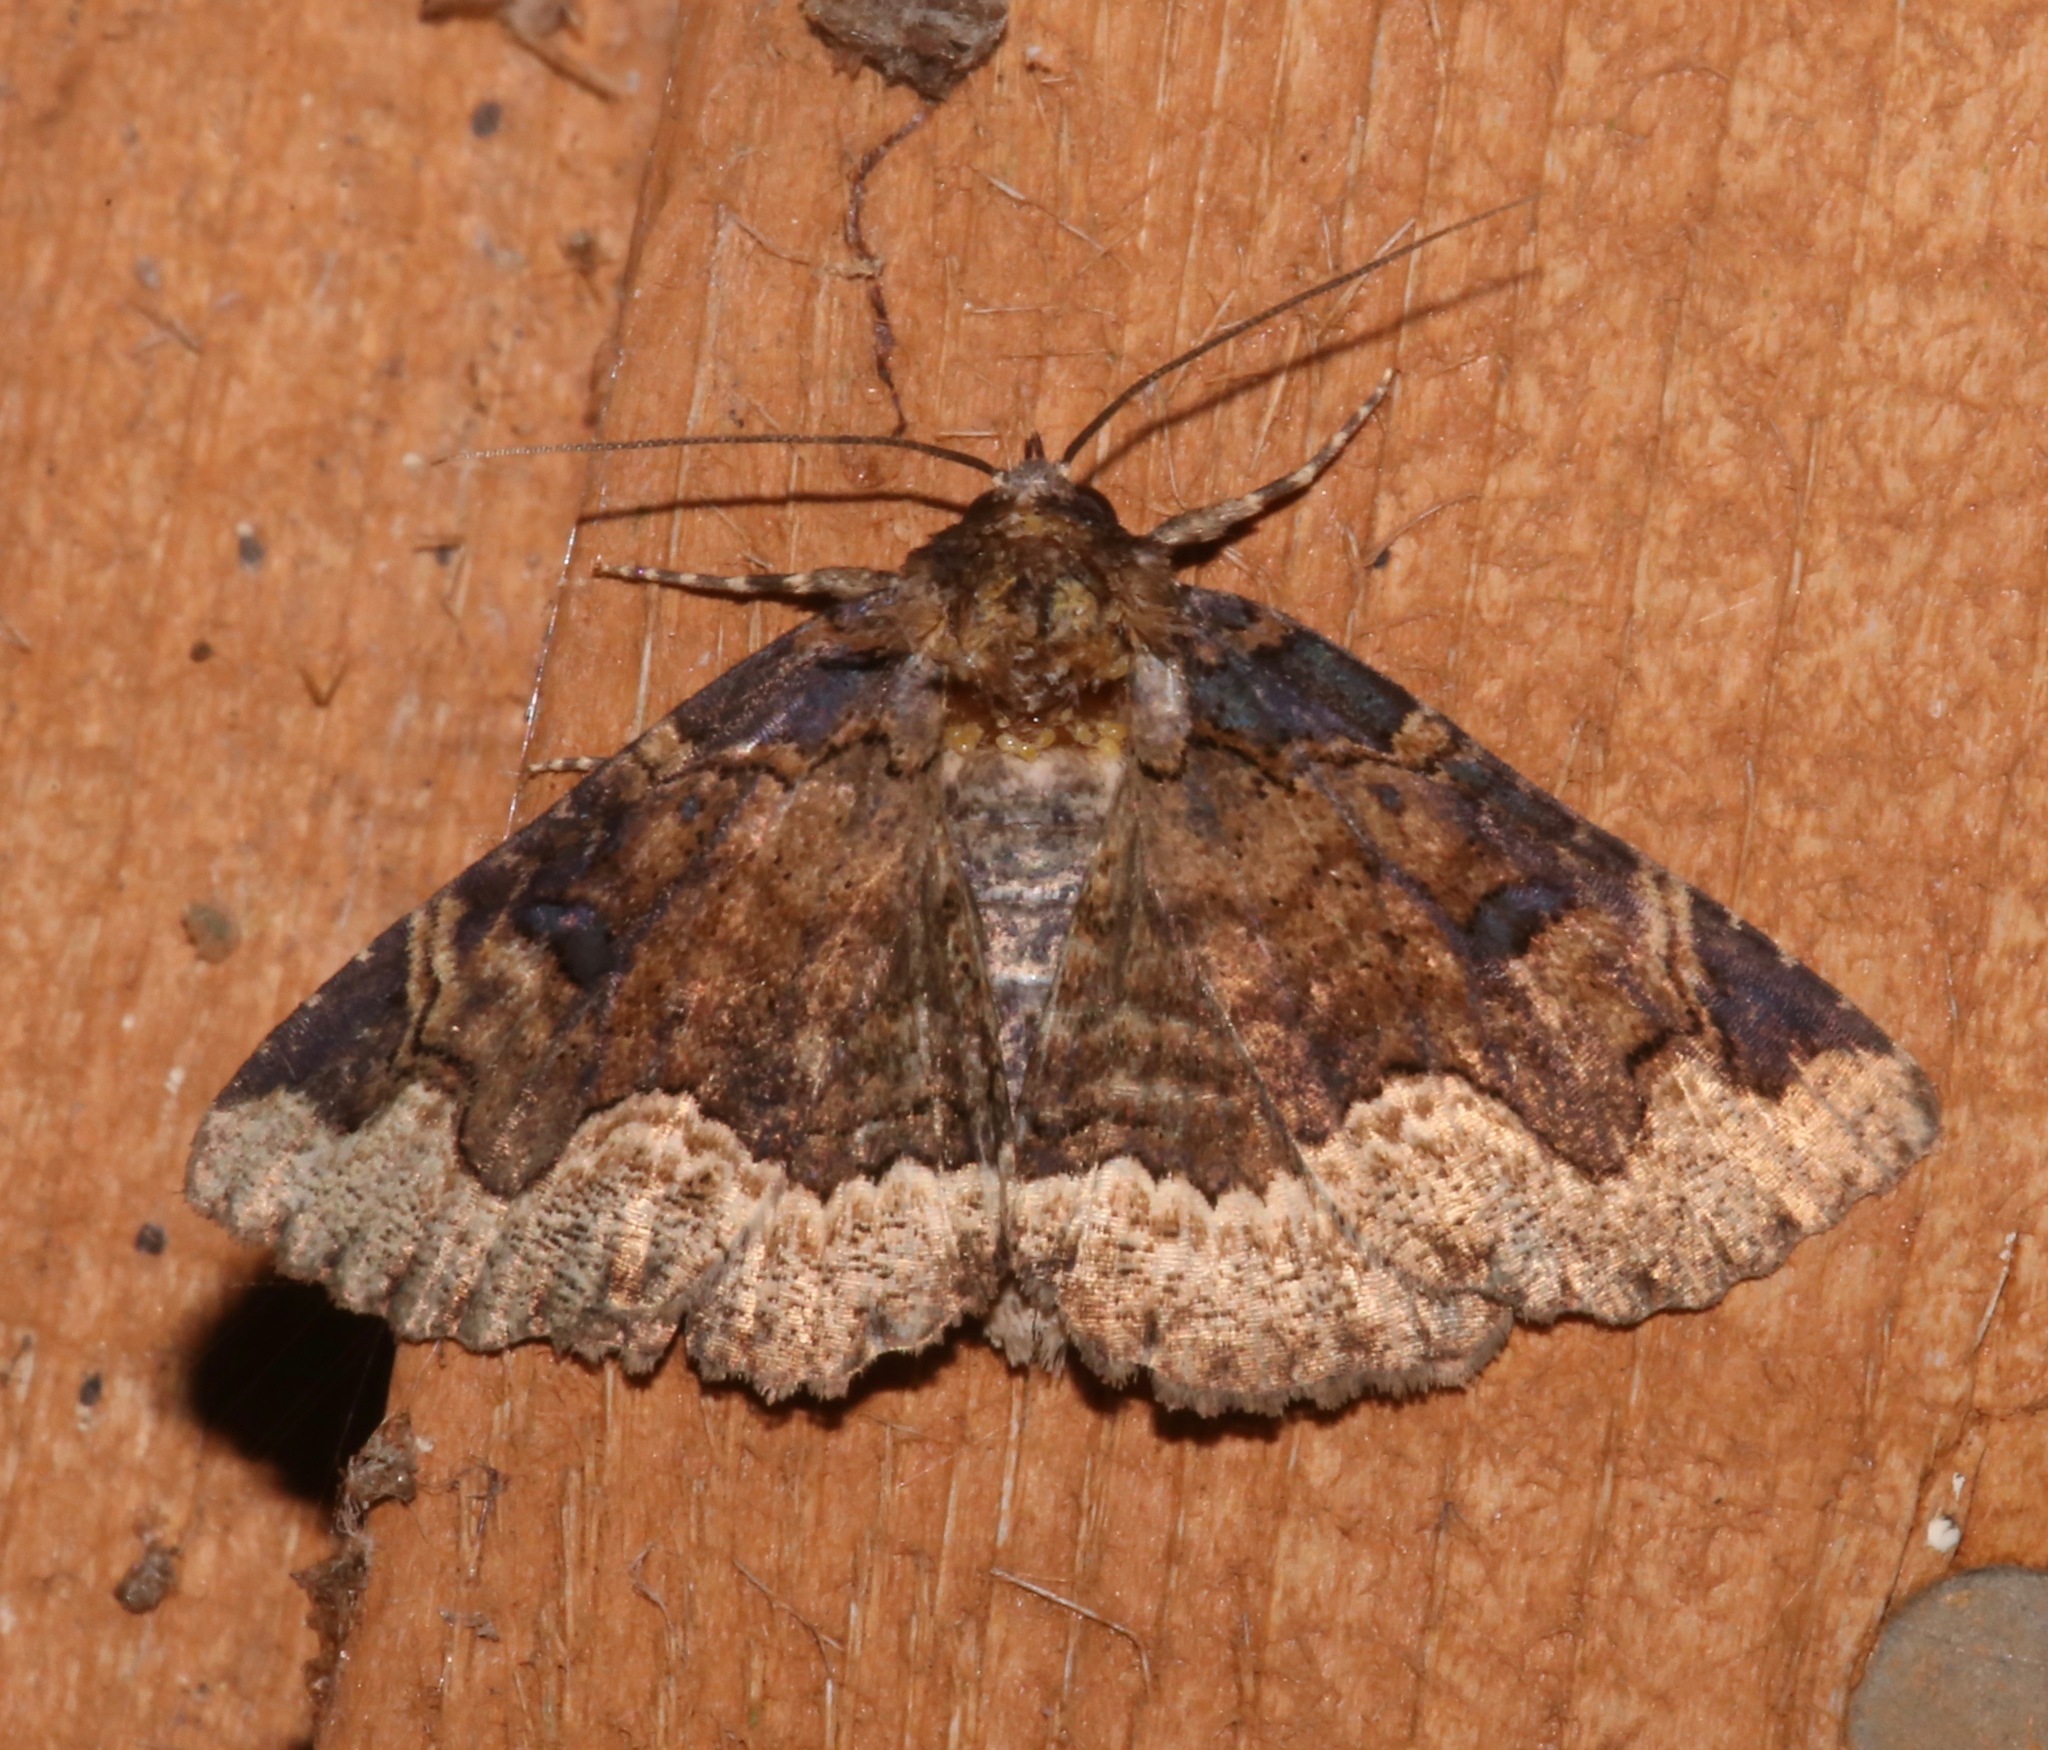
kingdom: Animalia
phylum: Arthropoda
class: Insecta
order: Lepidoptera
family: Erebidae
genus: Zale
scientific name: Zale horrida
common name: Horrid zale moth
